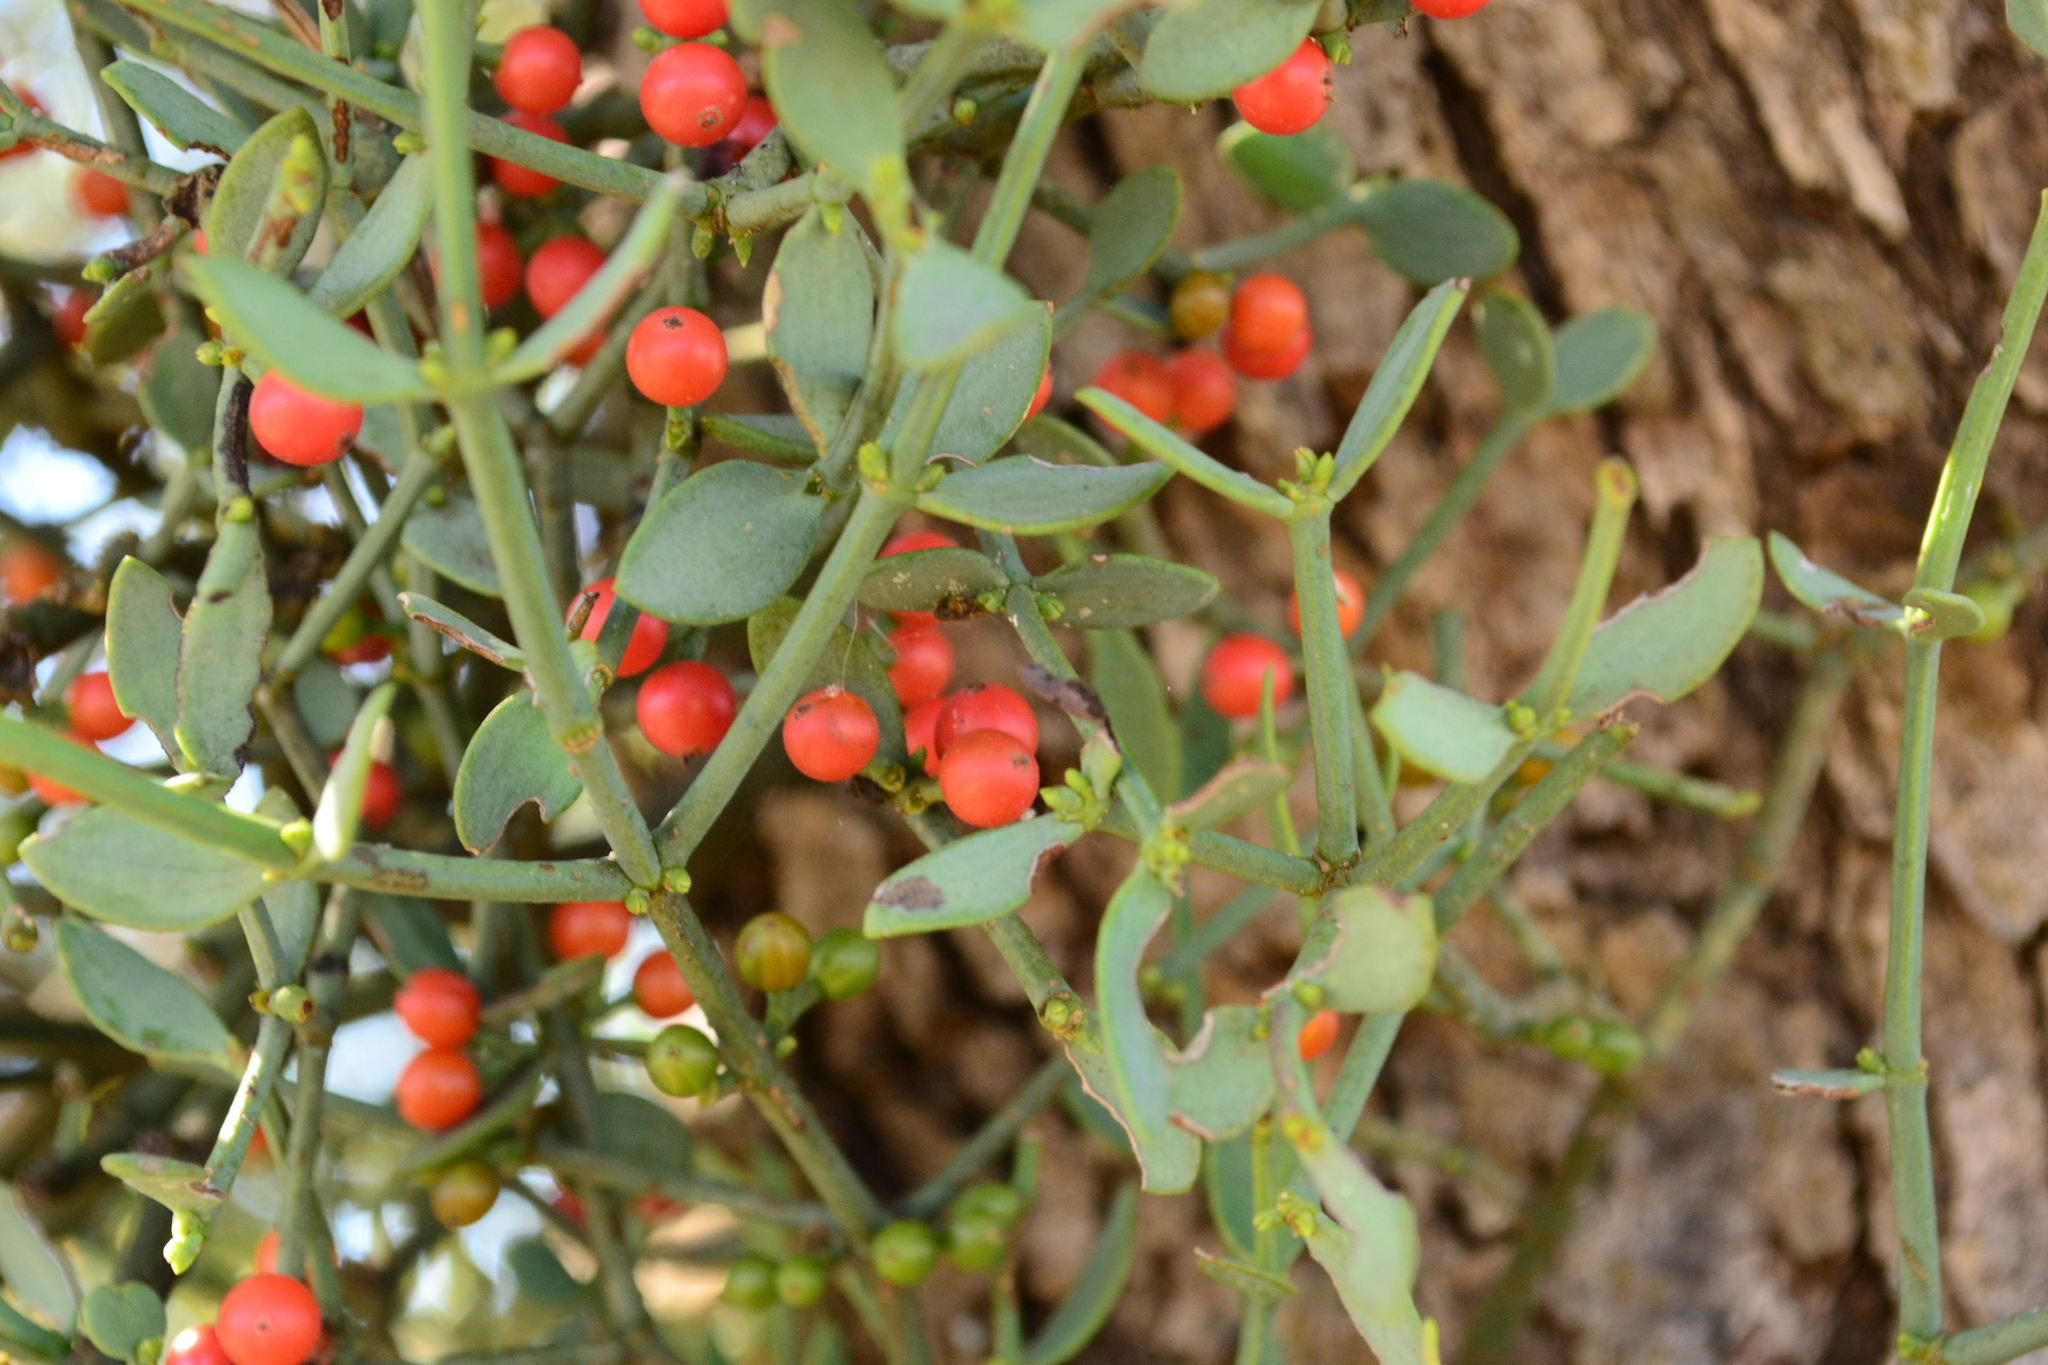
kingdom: Plantae
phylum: Tracheophyta
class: Magnoliopsida
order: Santalales
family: Viscaceae
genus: Viscum
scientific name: Viscum rotundifolium
